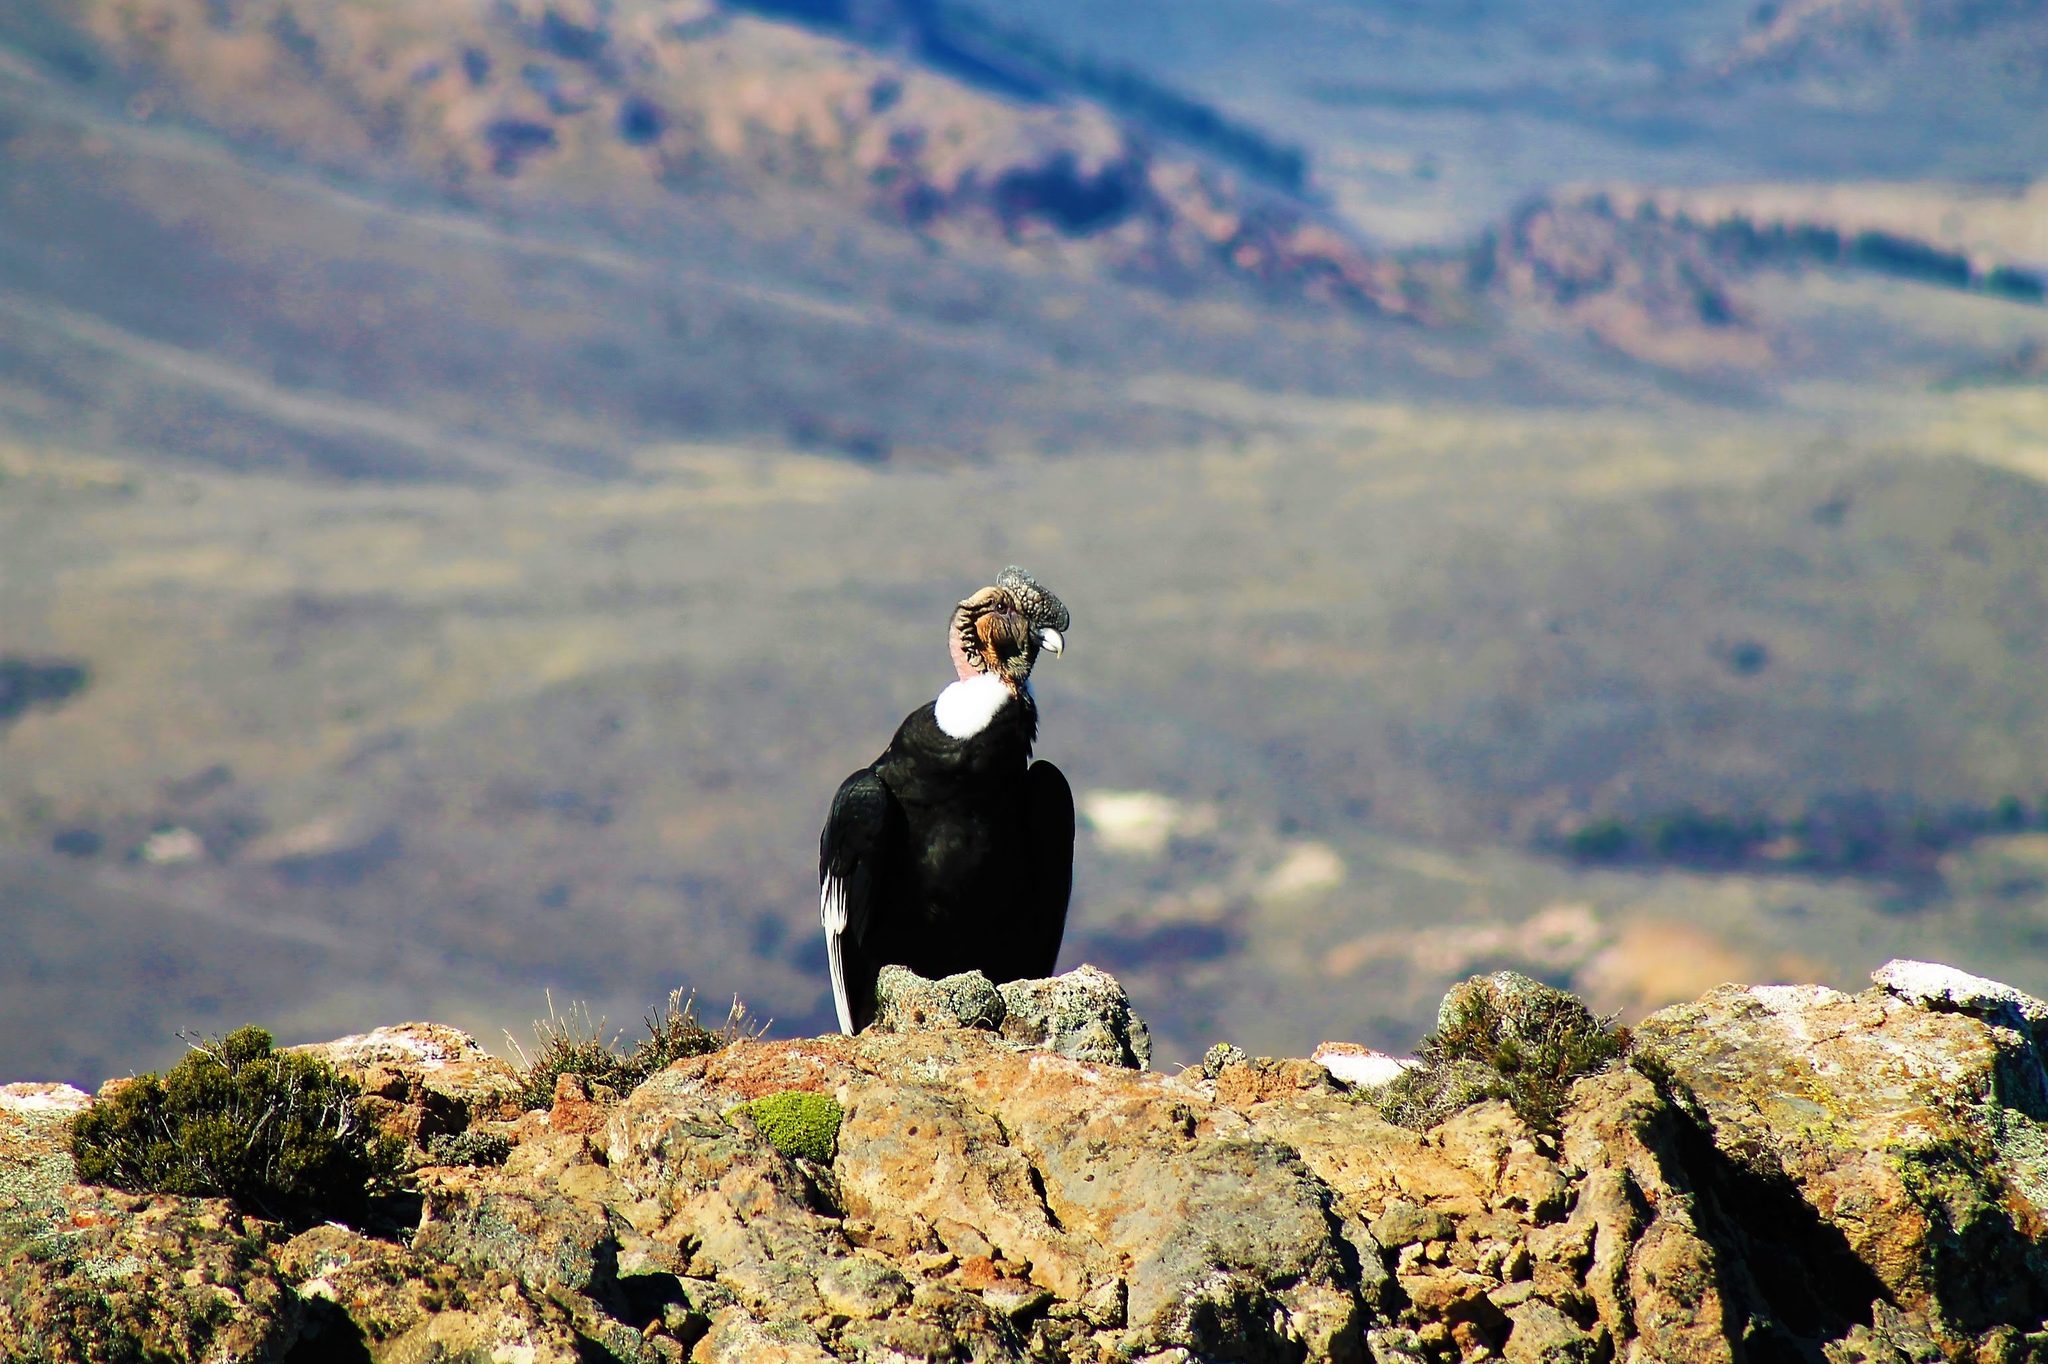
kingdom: Animalia
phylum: Chordata
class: Aves
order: Accipitriformes
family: Cathartidae
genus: Vultur
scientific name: Vultur gryphus
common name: Andean condor
